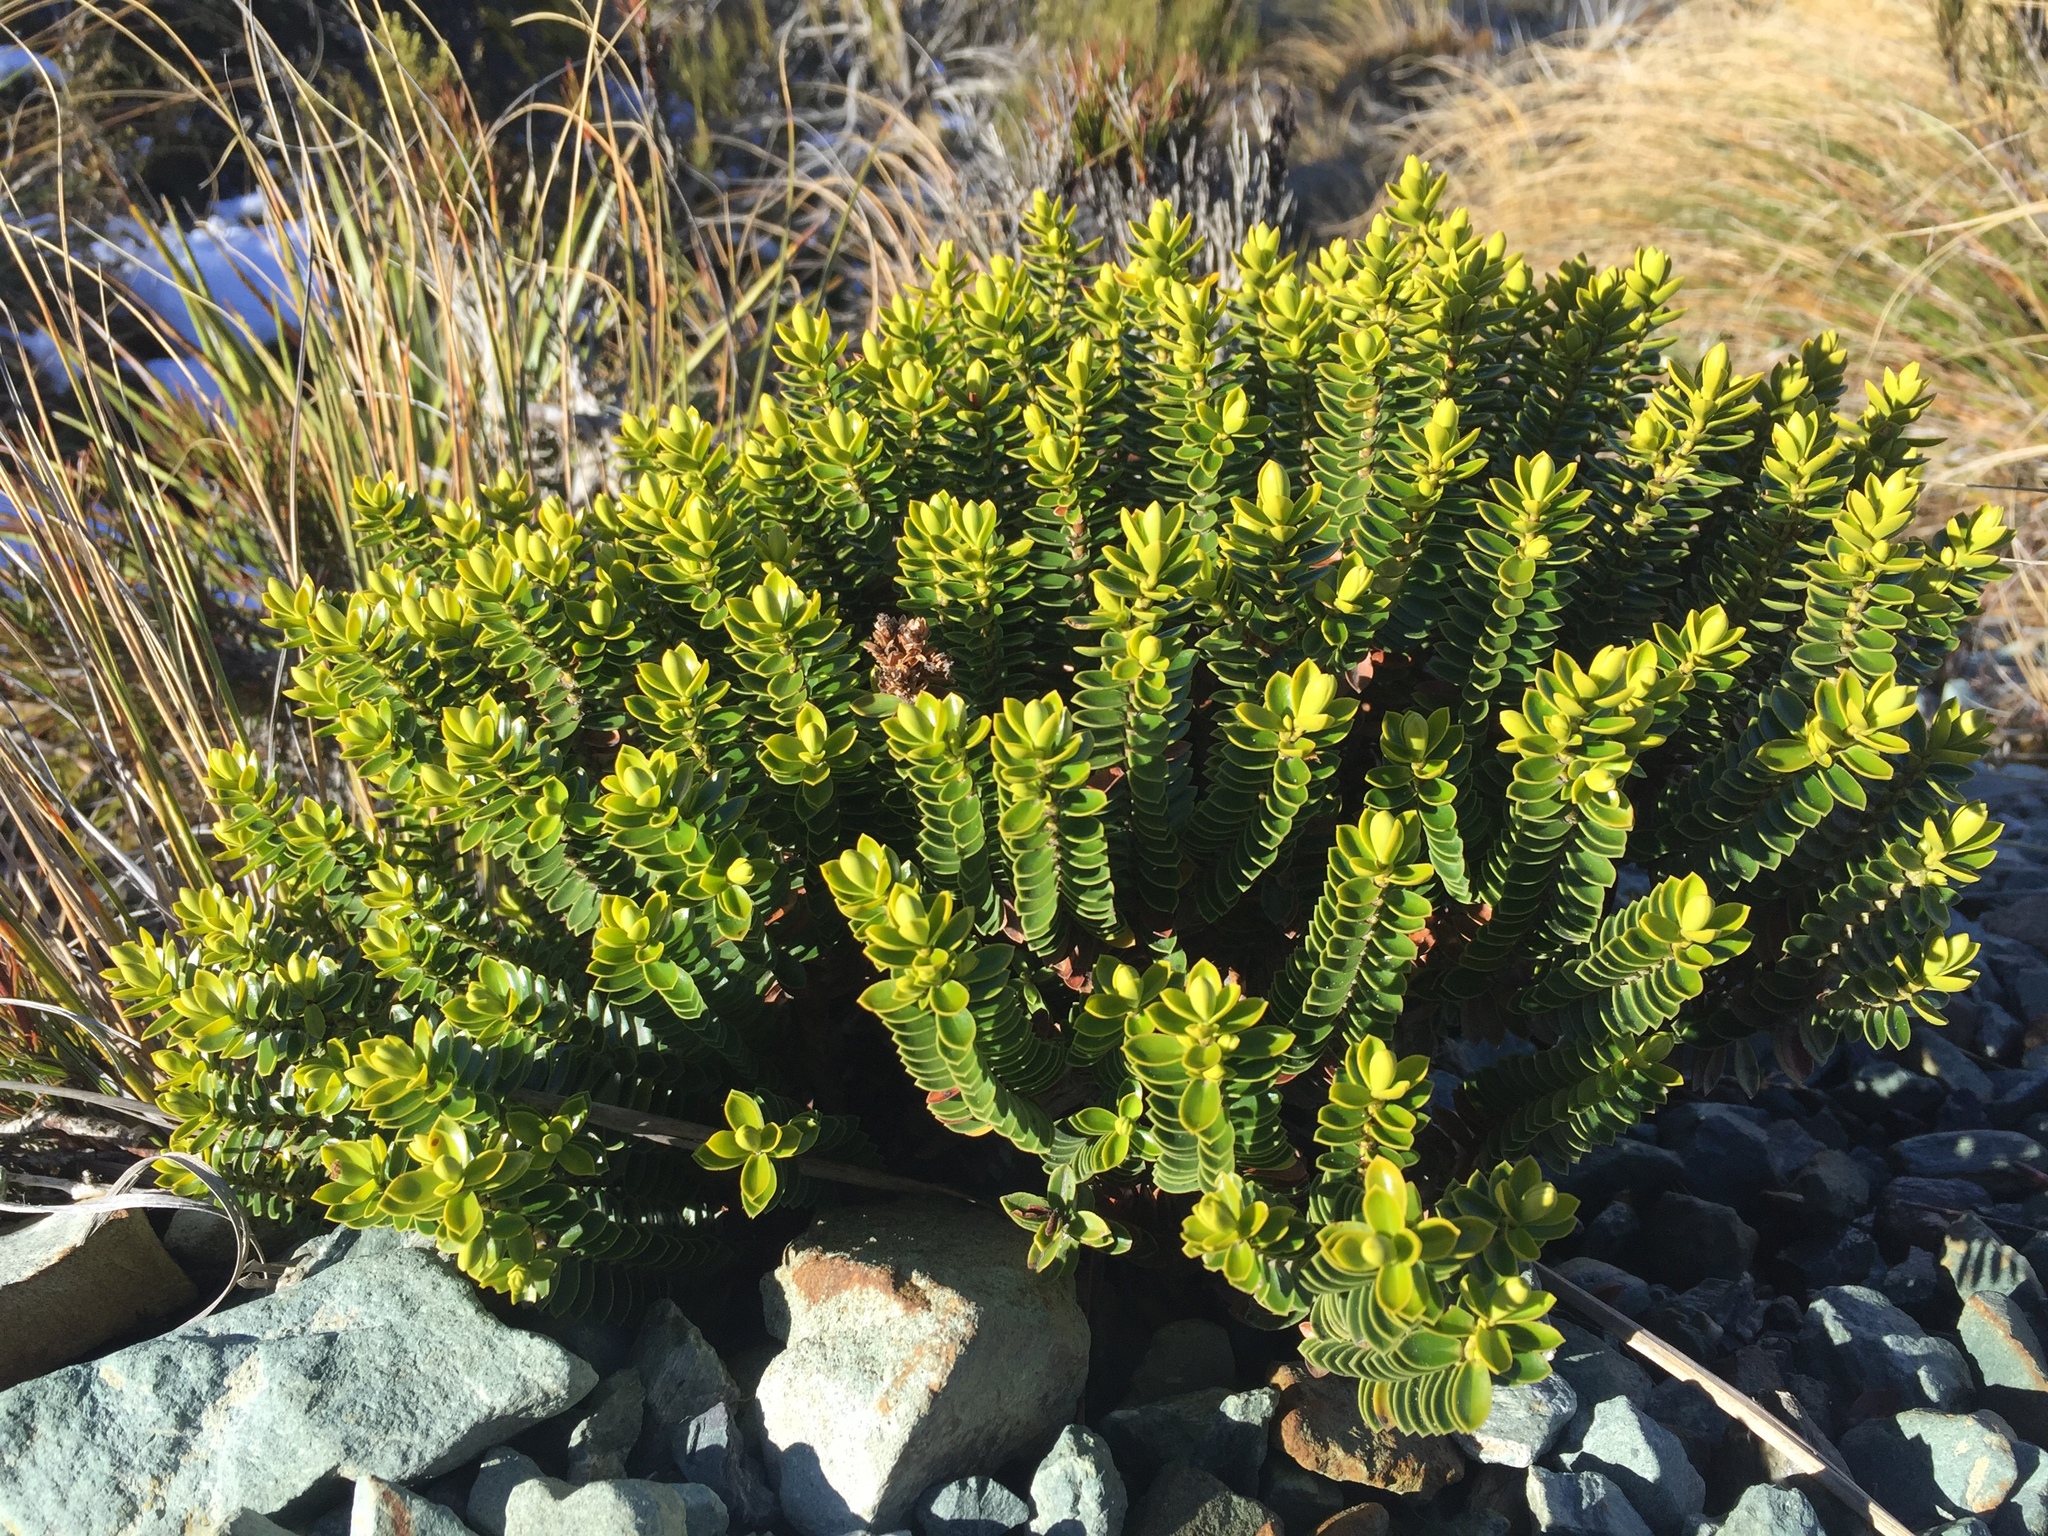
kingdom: Plantae
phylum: Tracheophyta
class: Magnoliopsida
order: Lamiales
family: Plantaginaceae
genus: Veronica
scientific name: Veronica odora
